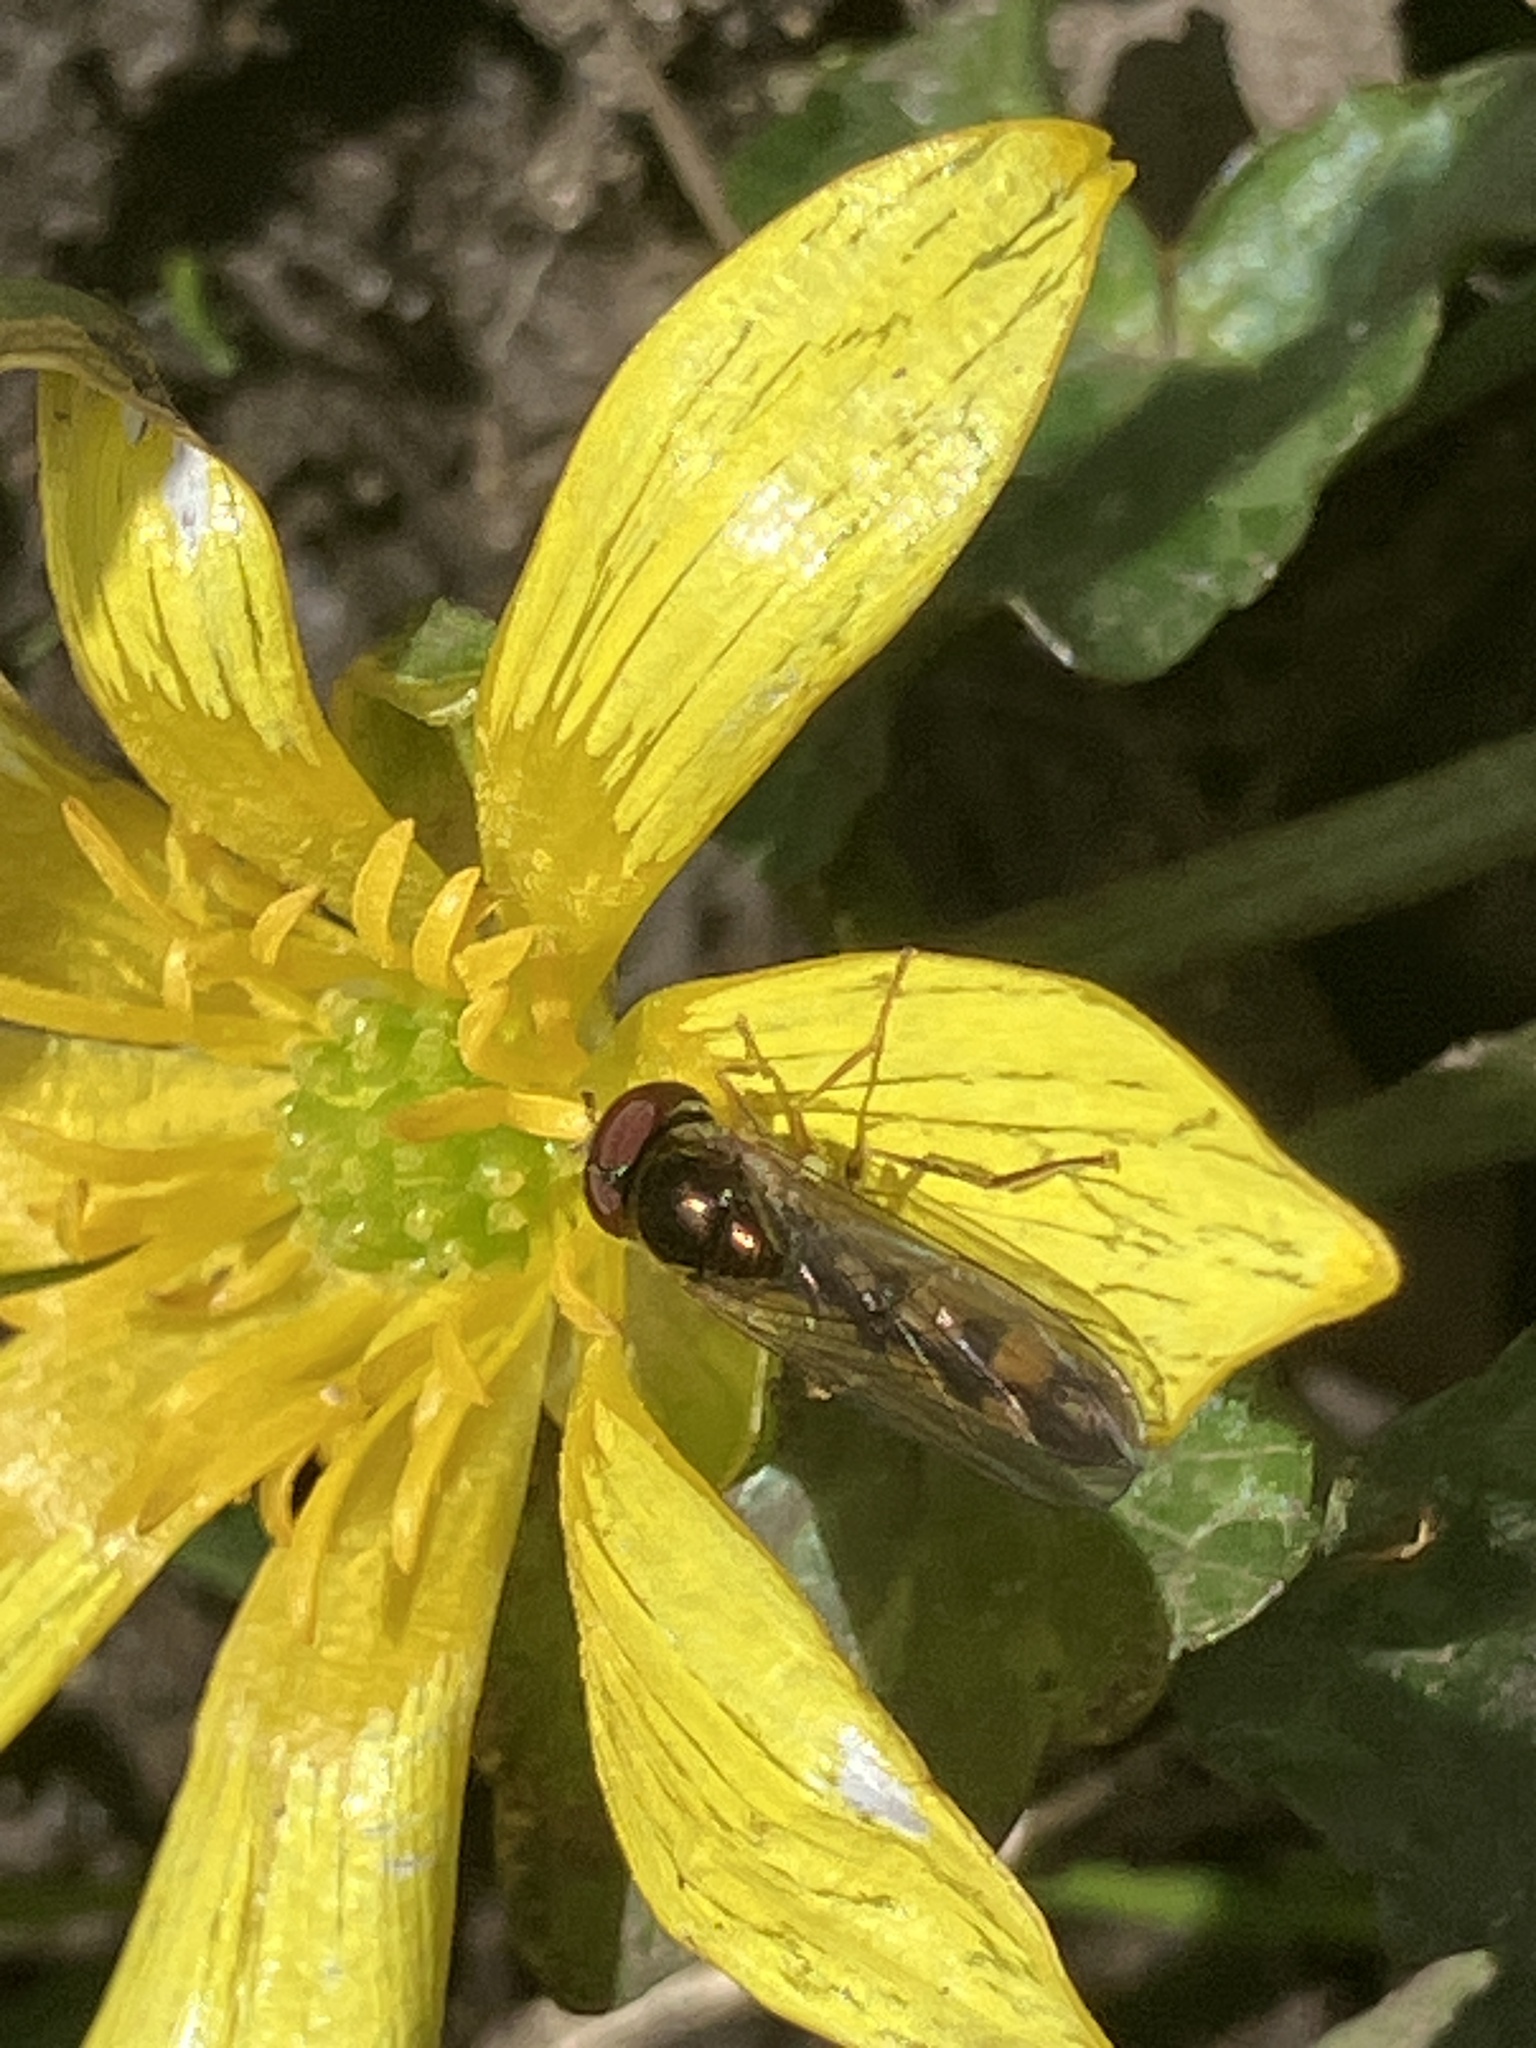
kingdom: Animalia
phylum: Arthropoda
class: Insecta
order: Diptera
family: Syrphidae
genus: Melanostoma
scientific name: Melanostoma scalare
